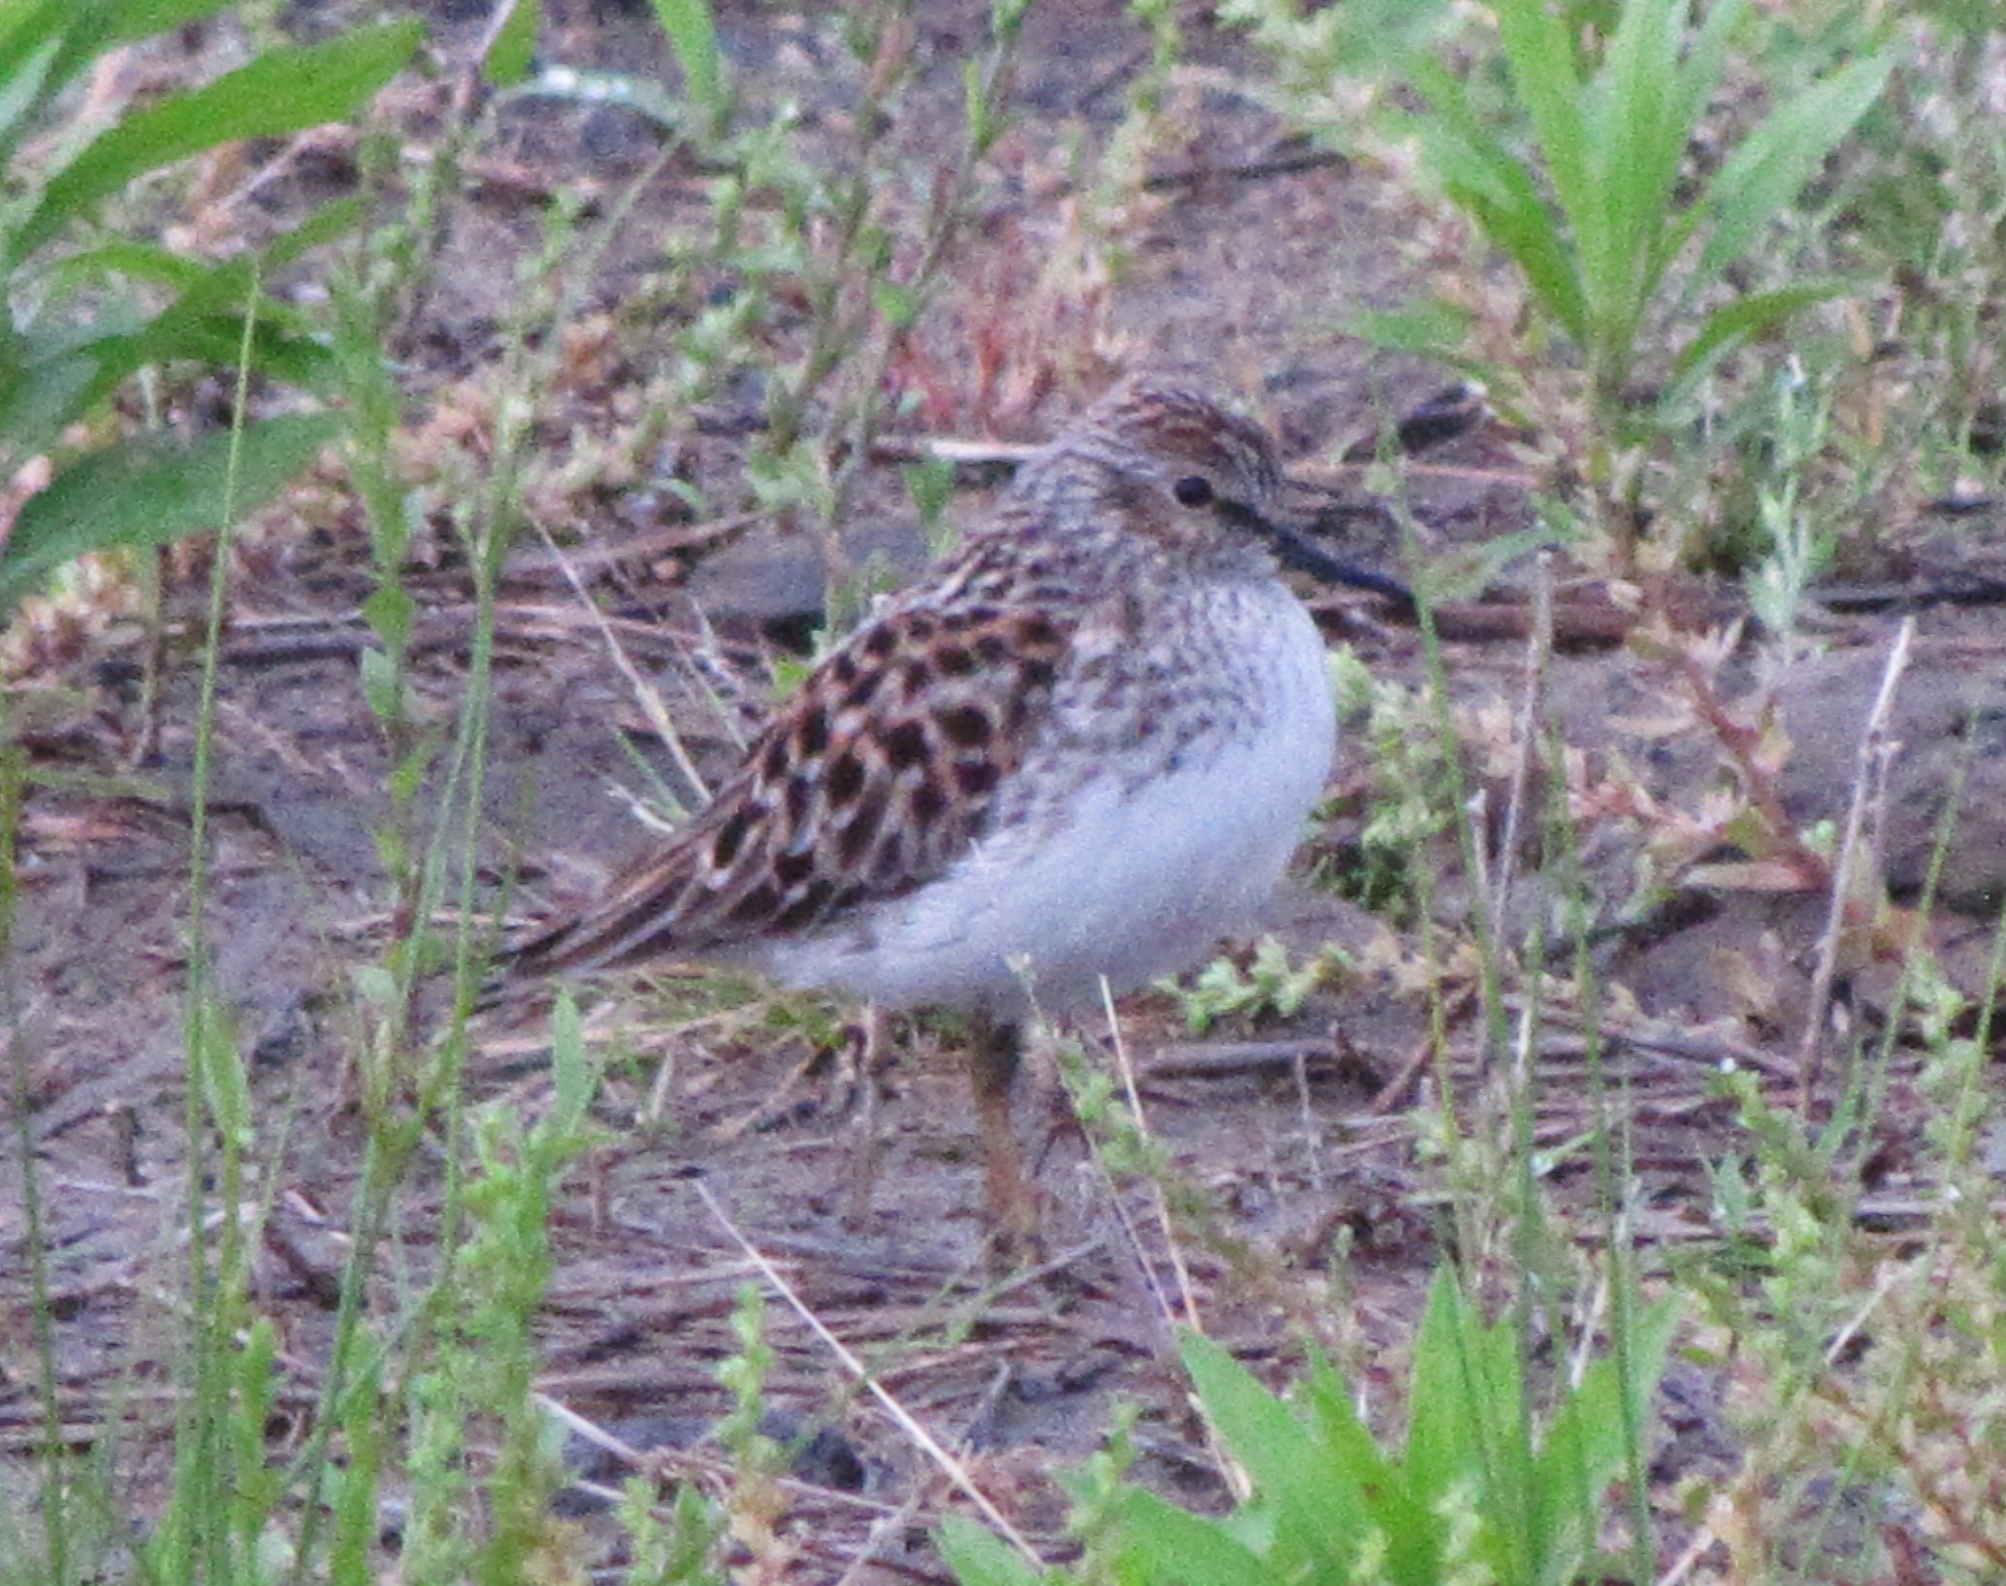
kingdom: Animalia
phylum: Chordata
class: Aves
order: Charadriiformes
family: Scolopacidae
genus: Calidris
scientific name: Calidris minutilla
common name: Least sandpiper
